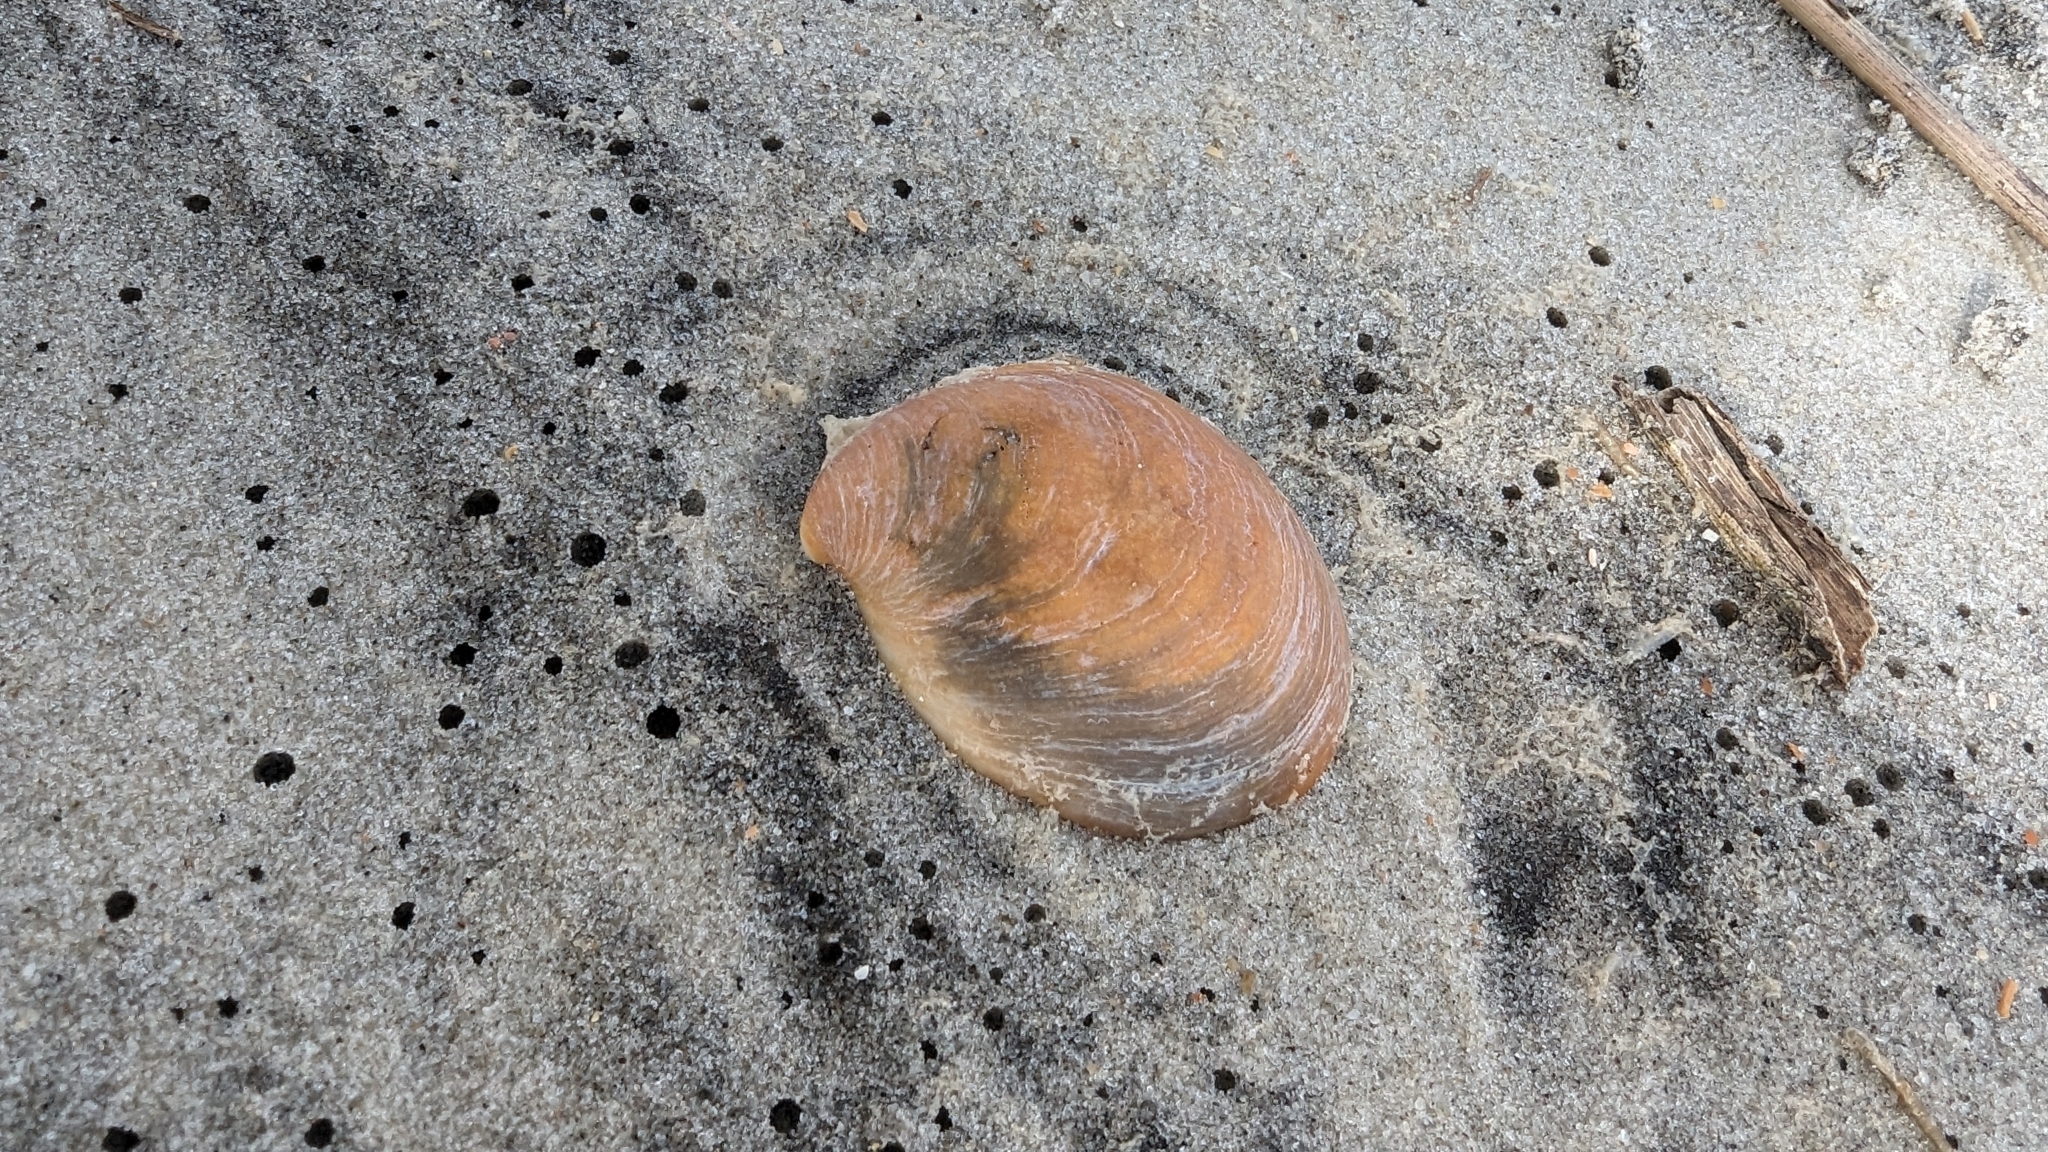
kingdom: Animalia
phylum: Mollusca
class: Gastropoda
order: Littorinimorpha
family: Calyptraeidae
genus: Crepidula
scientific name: Crepidula fornicata
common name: Slipper limpet
